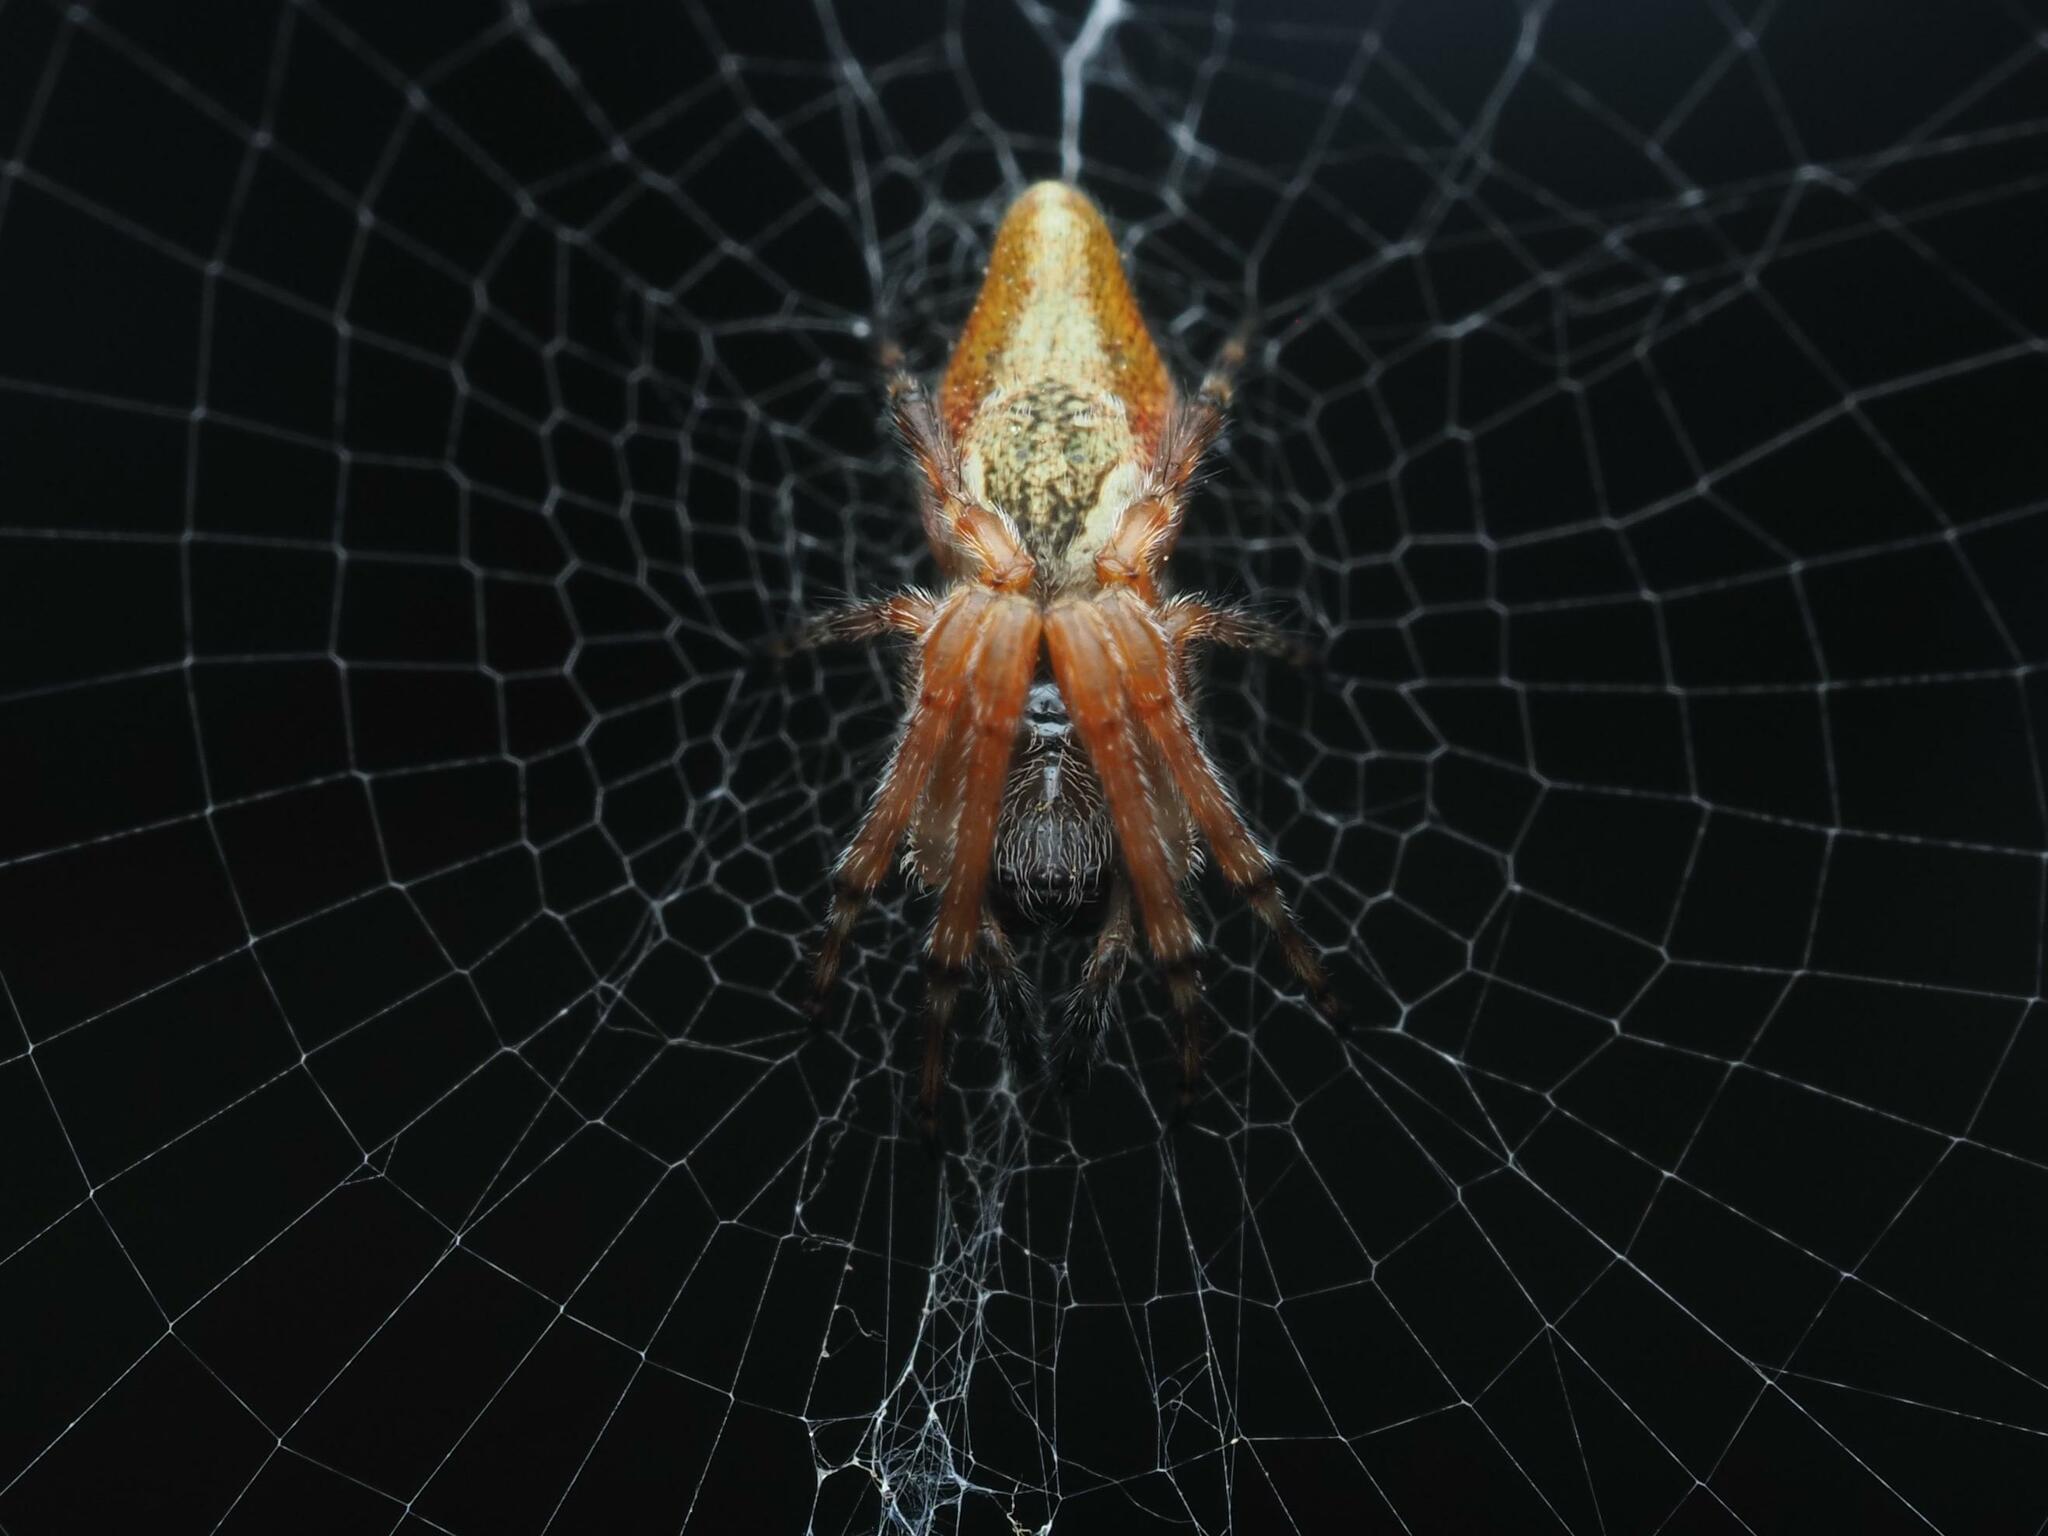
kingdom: Animalia
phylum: Arthropoda
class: Arachnida
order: Araneae
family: Araneidae
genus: Cyclosa
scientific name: Cyclosa conica
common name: Conical trashline orbweaver
